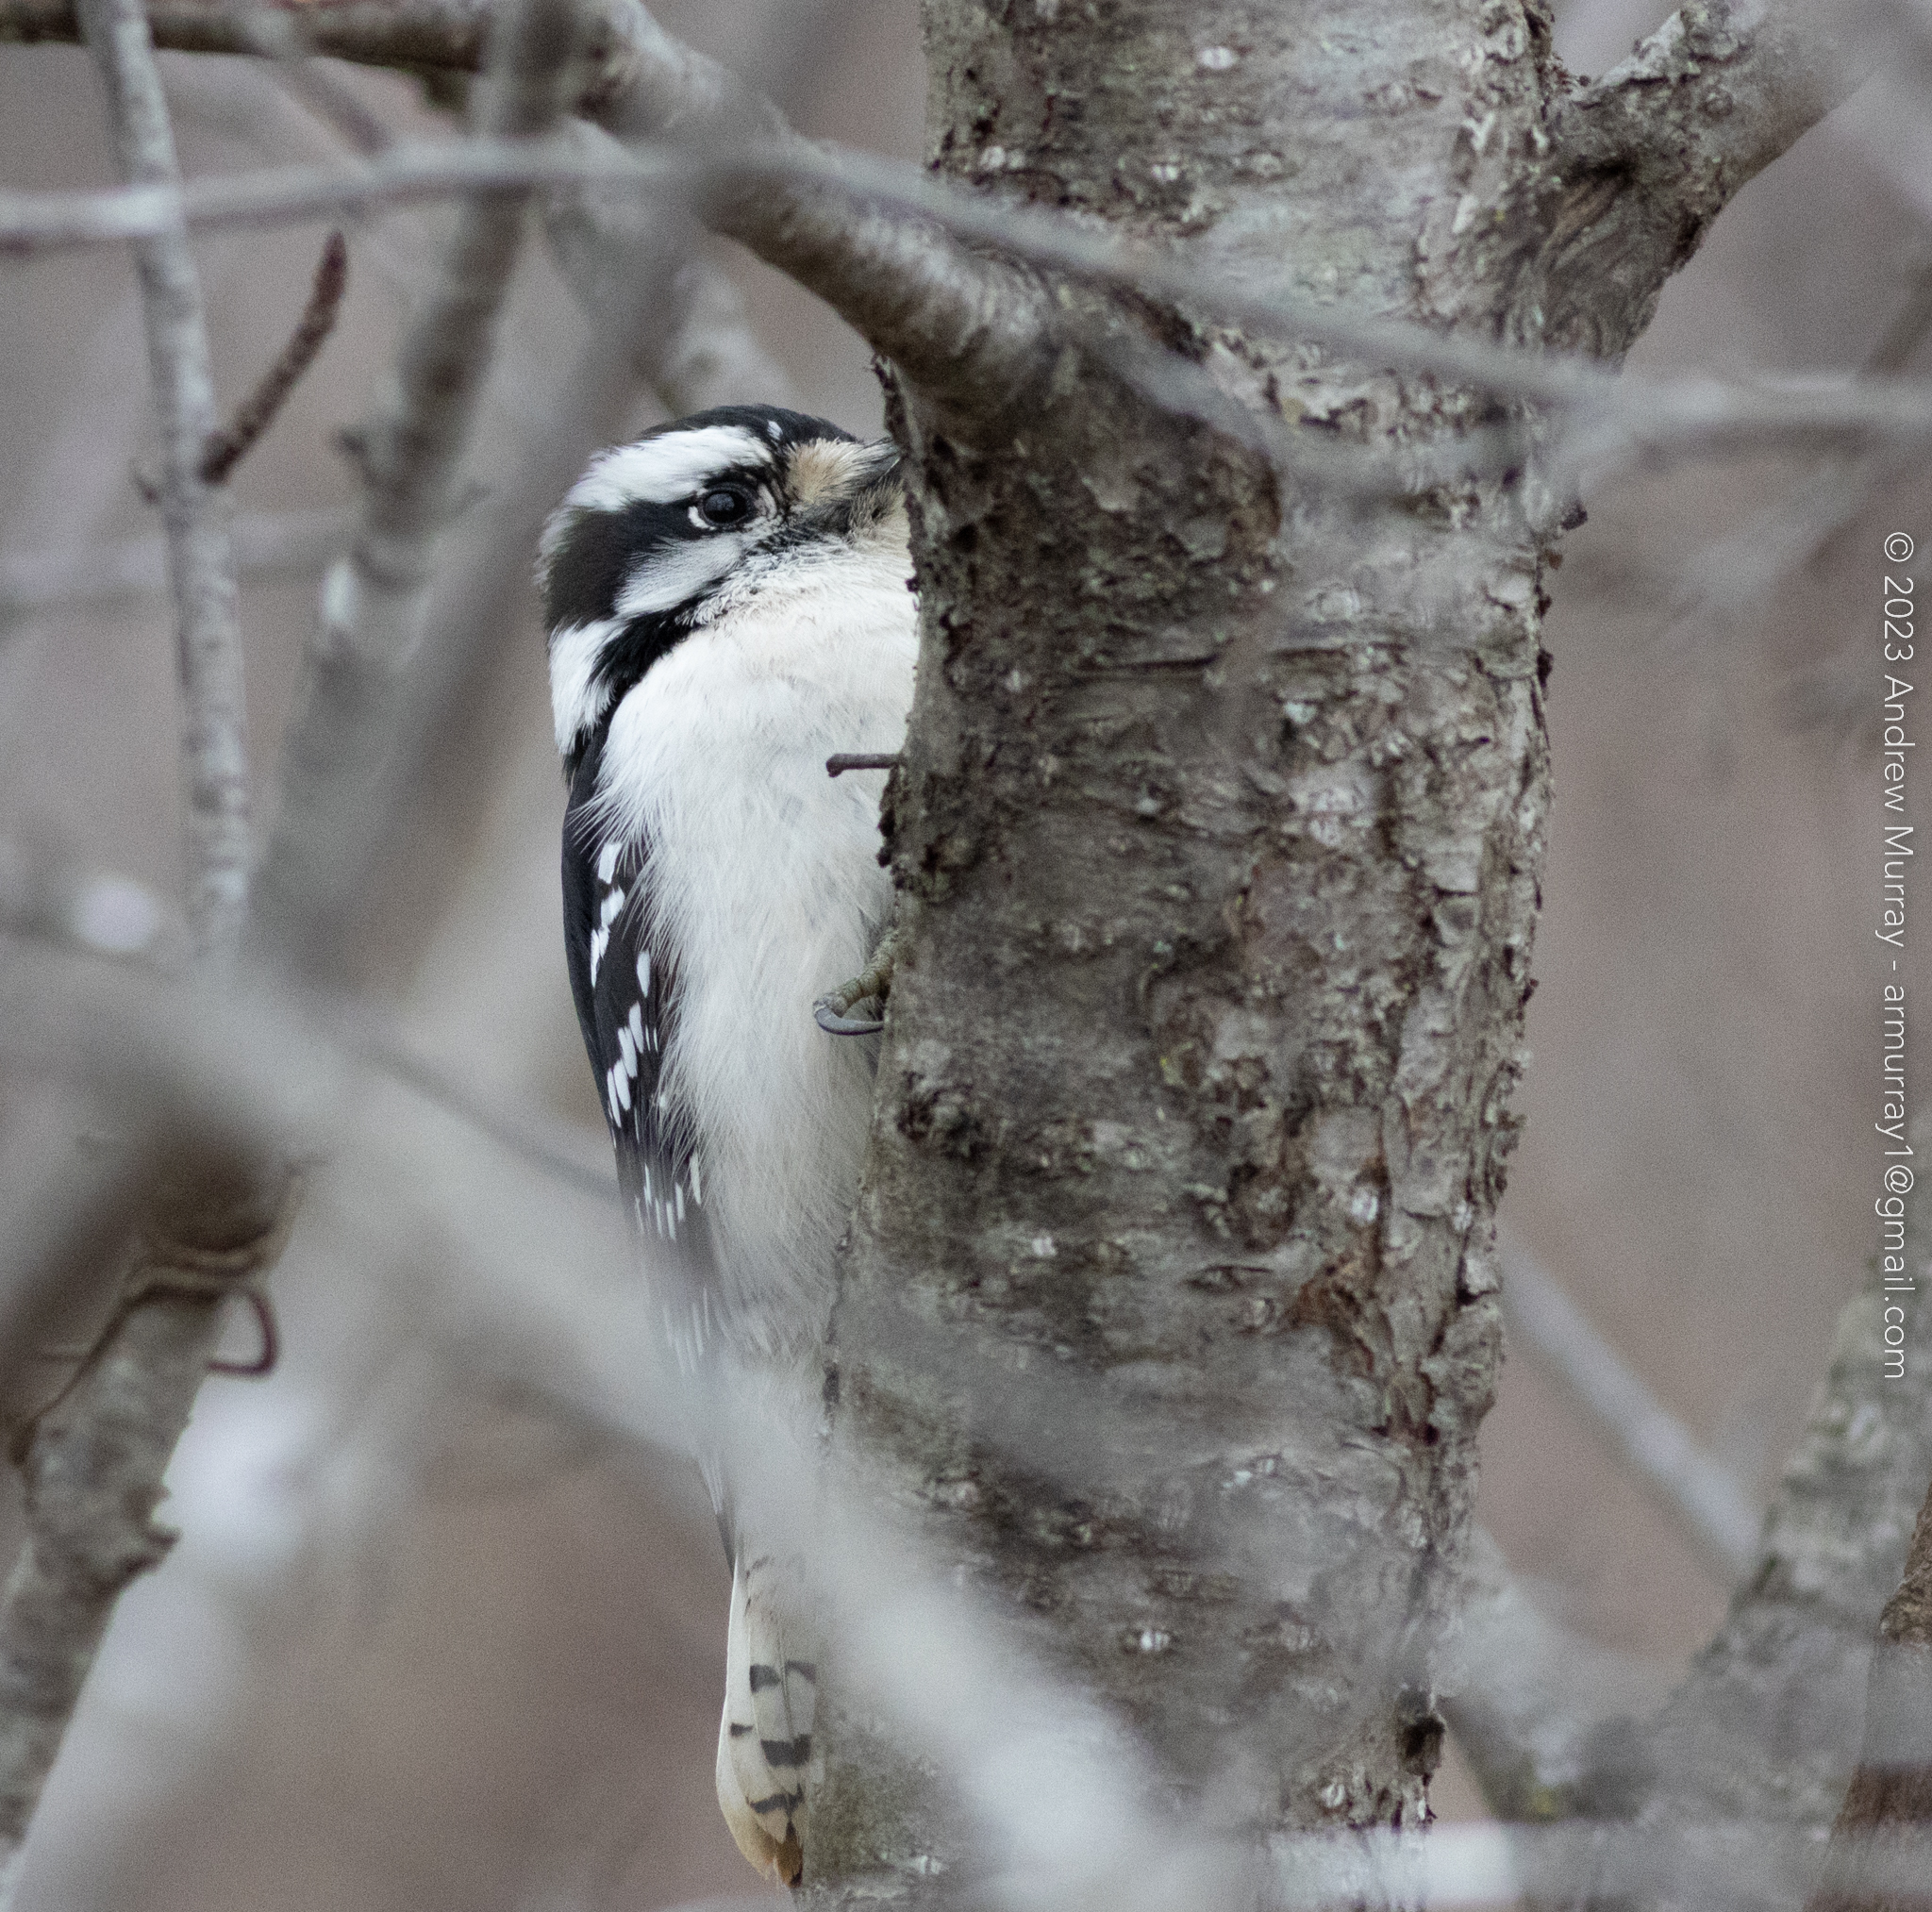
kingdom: Animalia
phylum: Chordata
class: Aves
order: Piciformes
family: Picidae
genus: Dryobates
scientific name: Dryobates pubescens
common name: Downy woodpecker
